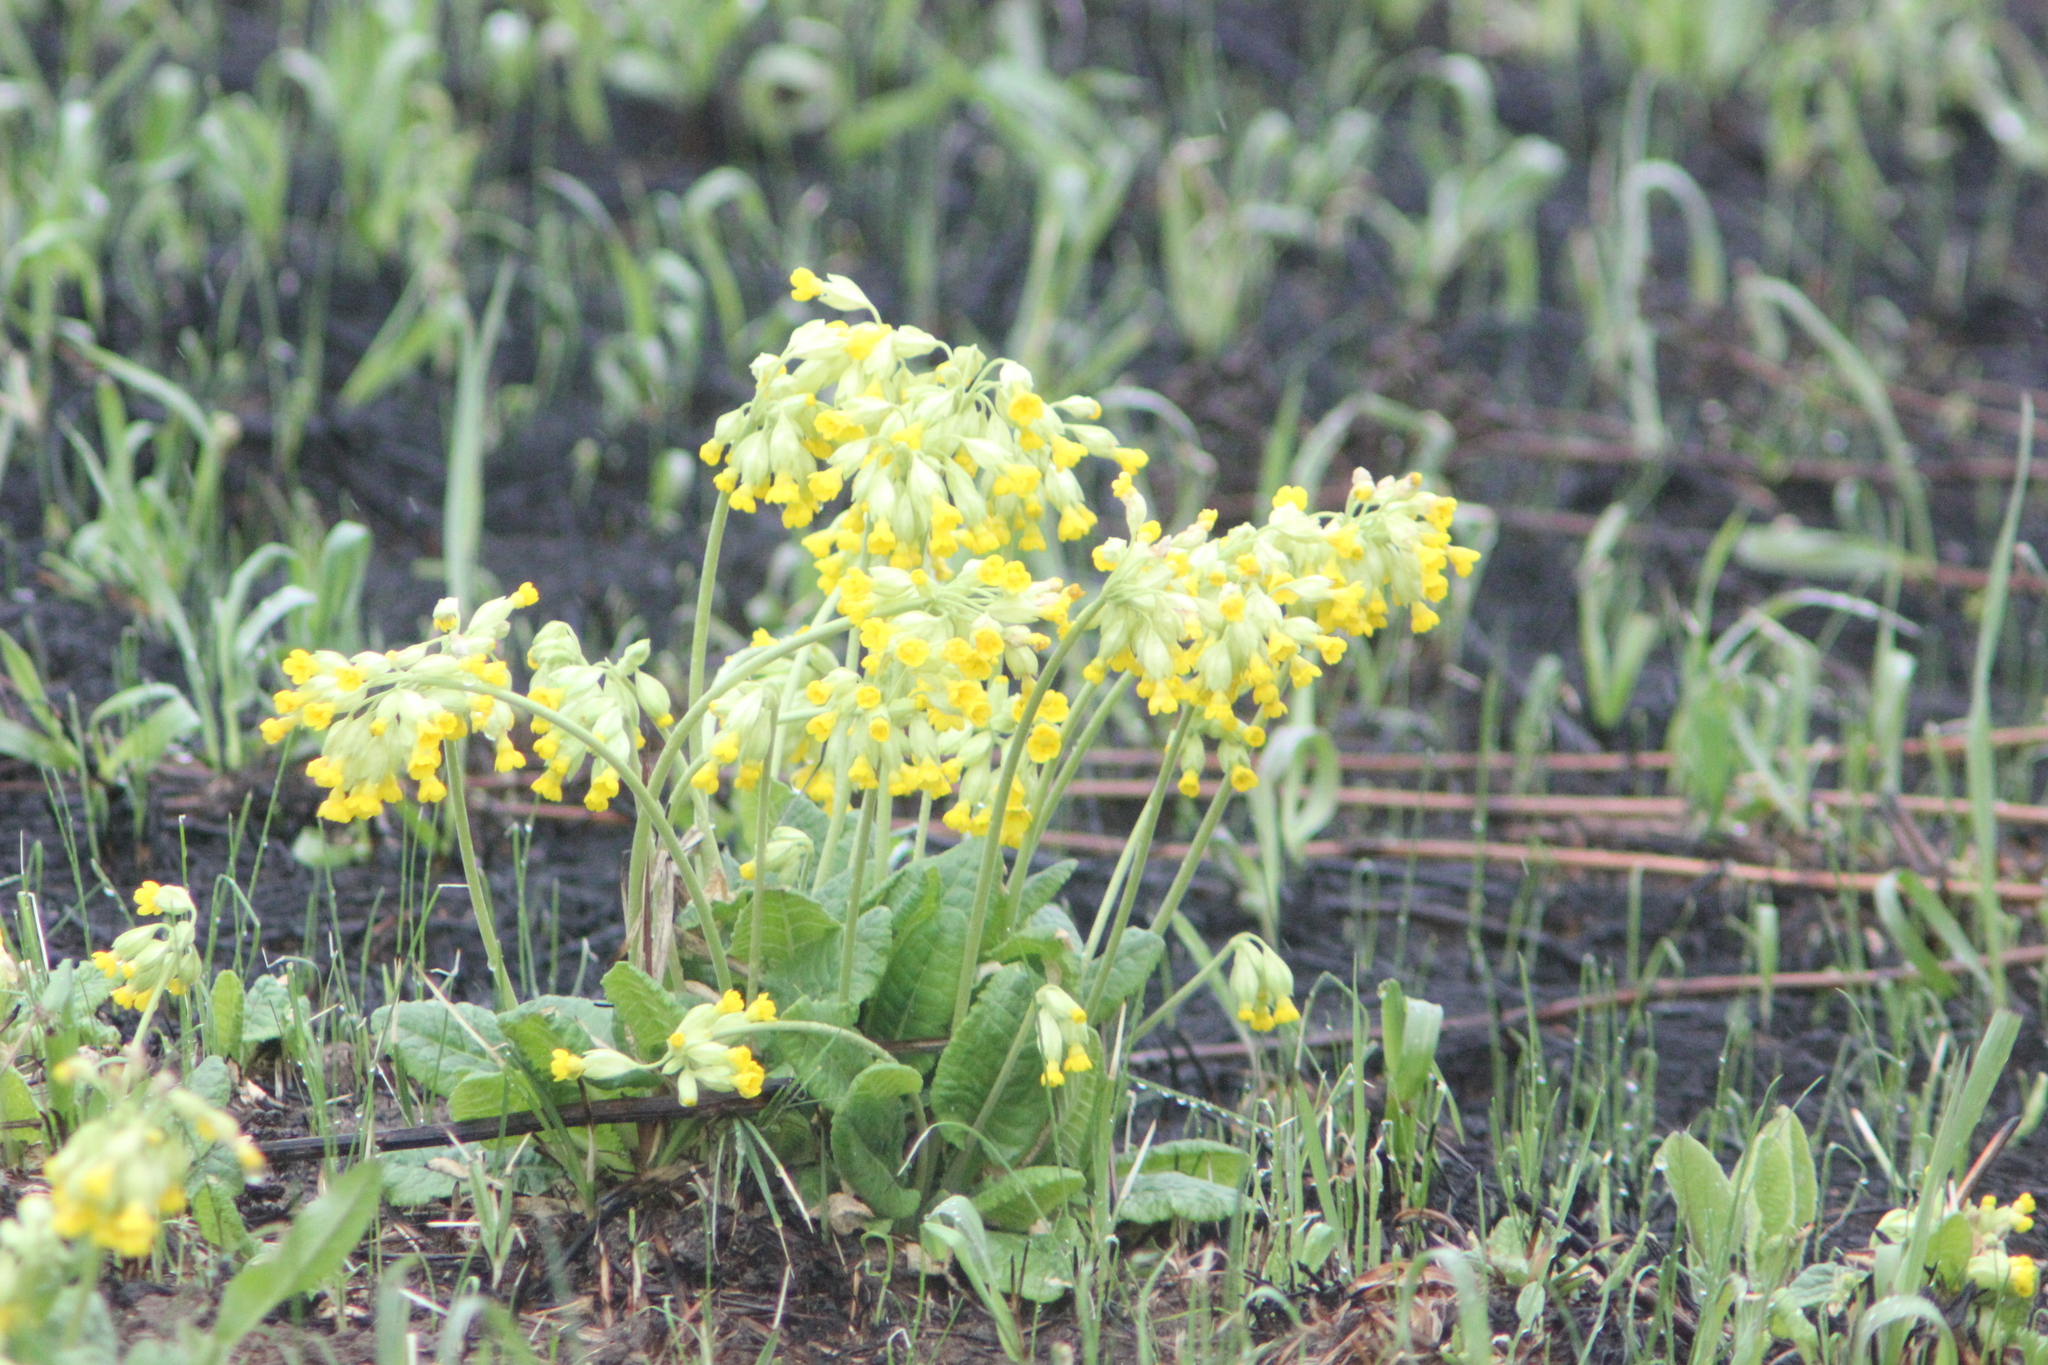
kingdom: Plantae
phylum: Tracheophyta
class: Magnoliopsida
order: Ericales
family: Primulaceae
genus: Primula
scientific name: Primula veris
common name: Cowslip
